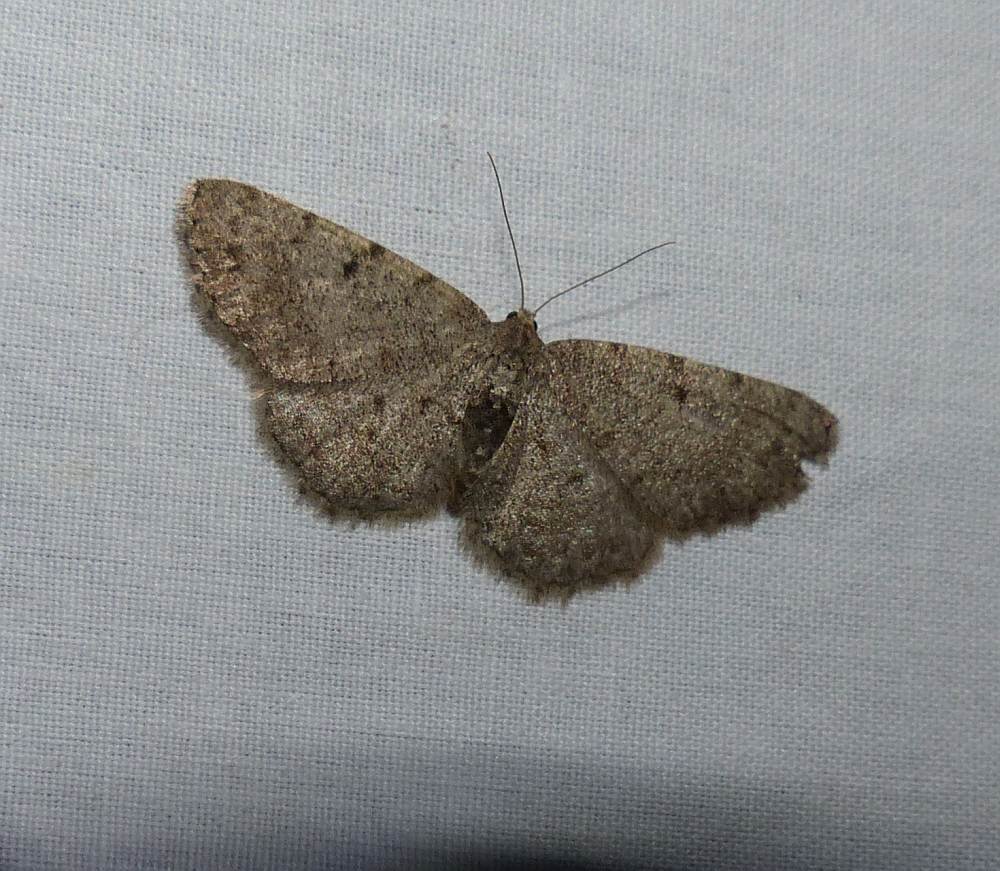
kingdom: Animalia
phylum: Arthropoda
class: Insecta
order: Lepidoptera
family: Geometridae
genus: Aethalura
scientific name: Aethalura intertexta
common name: Four-barred gray
